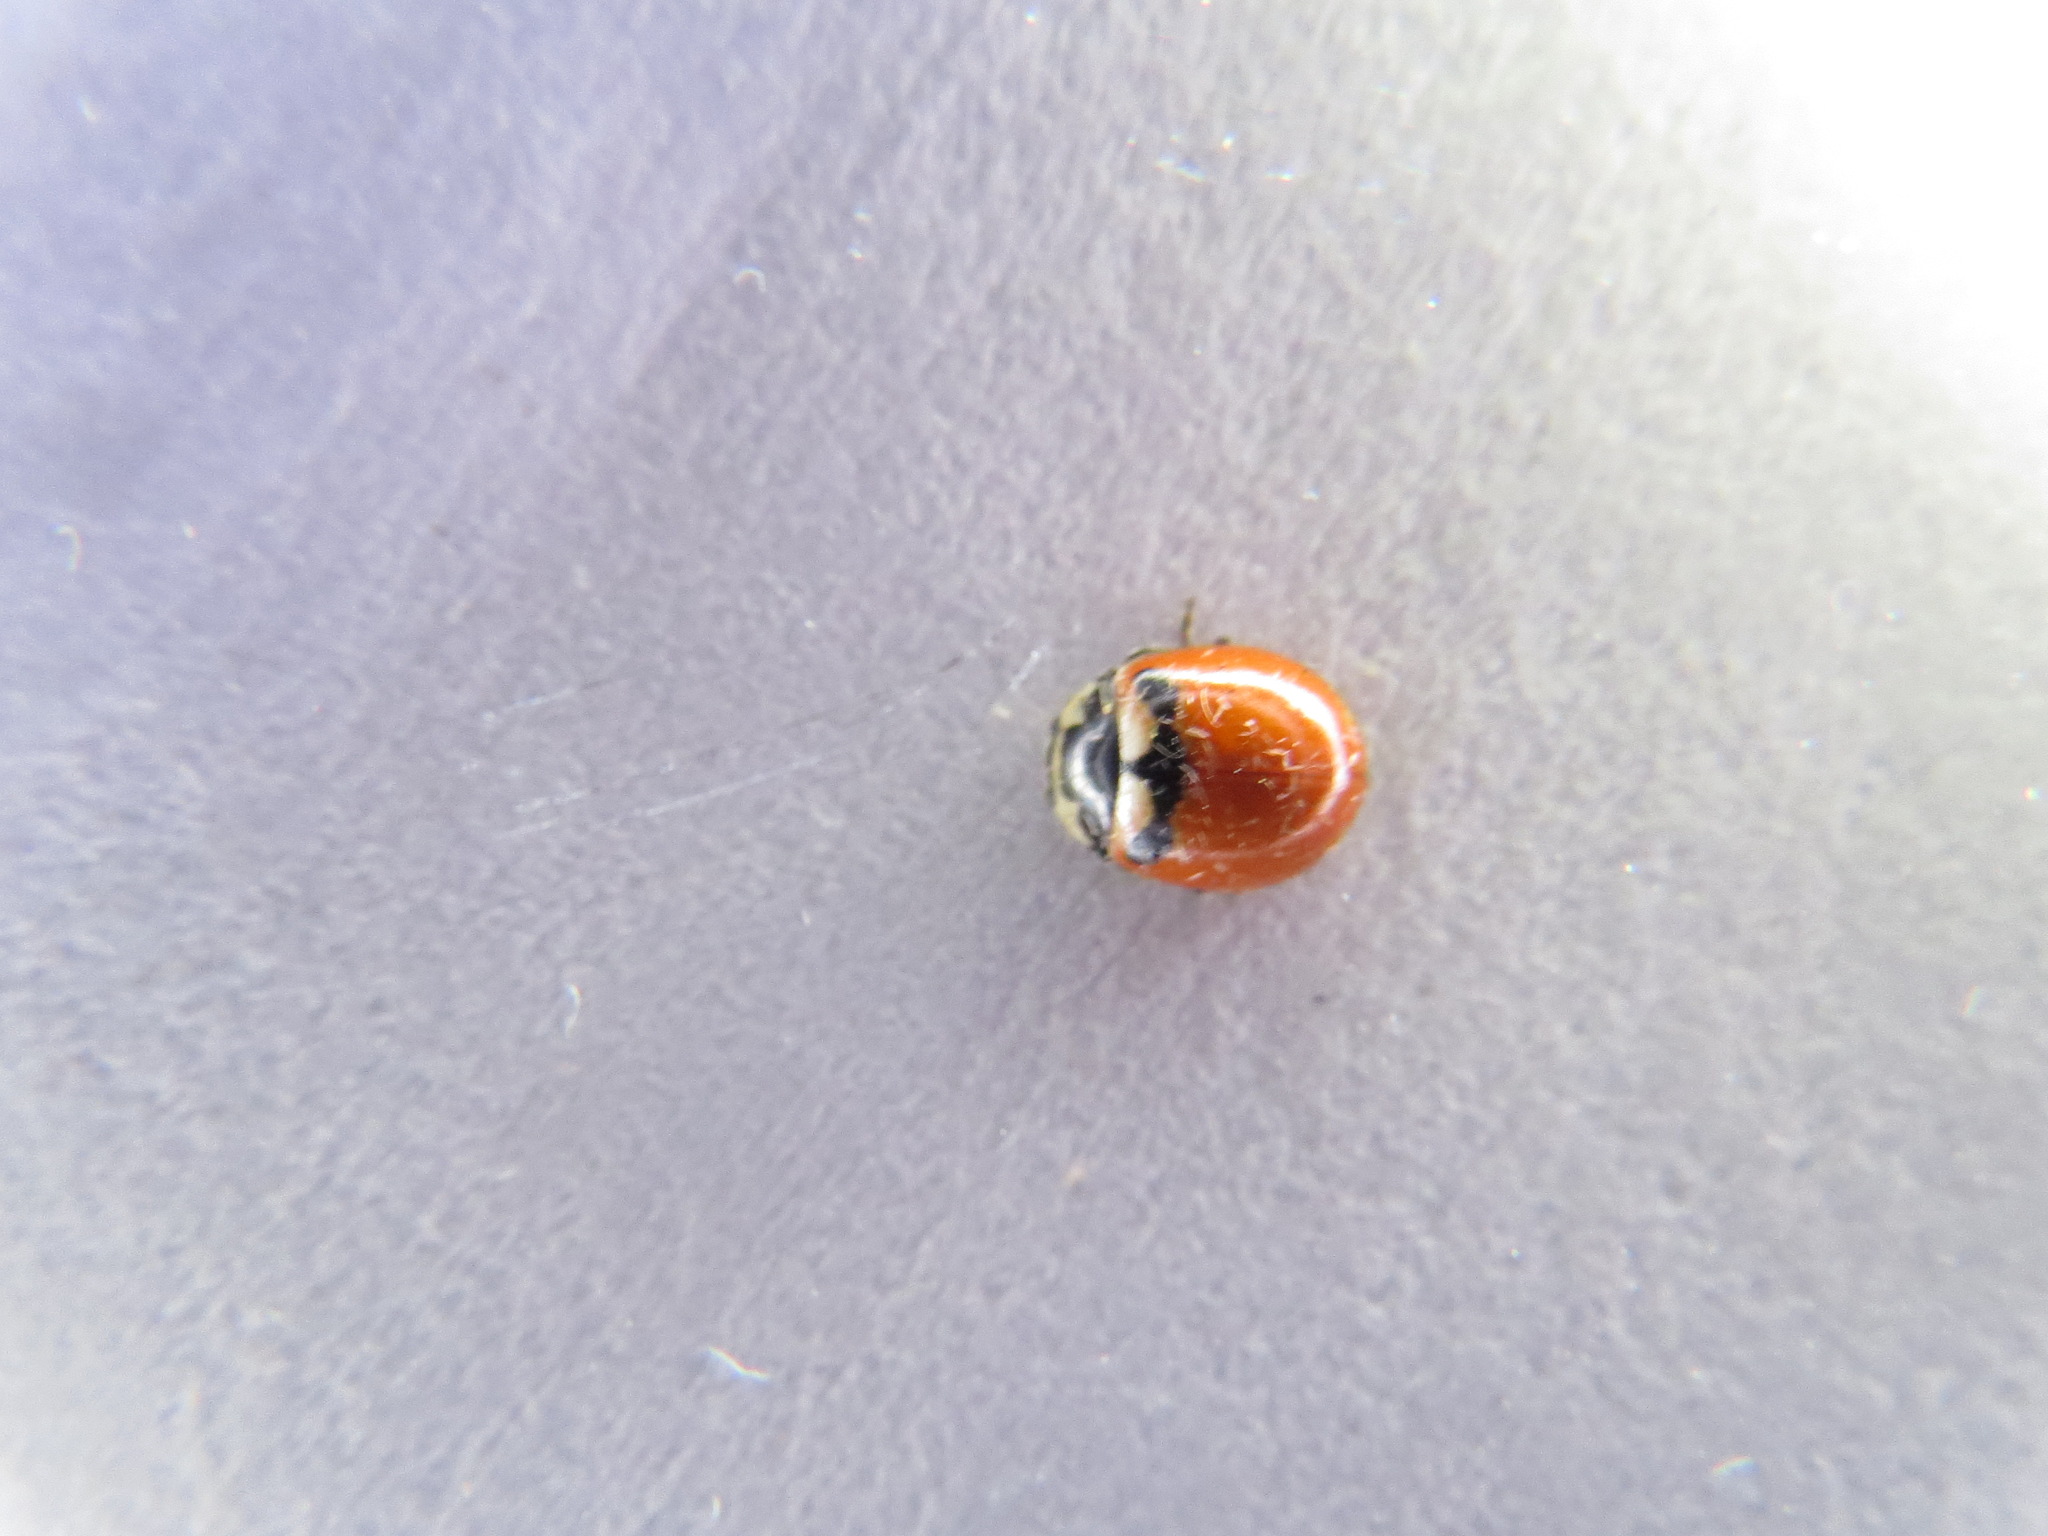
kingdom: Animalia
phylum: Arthropoda
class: Insecta
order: Coleoptera
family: Coccinellidae
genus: Coccinella
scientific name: Coccinella trifasciata
